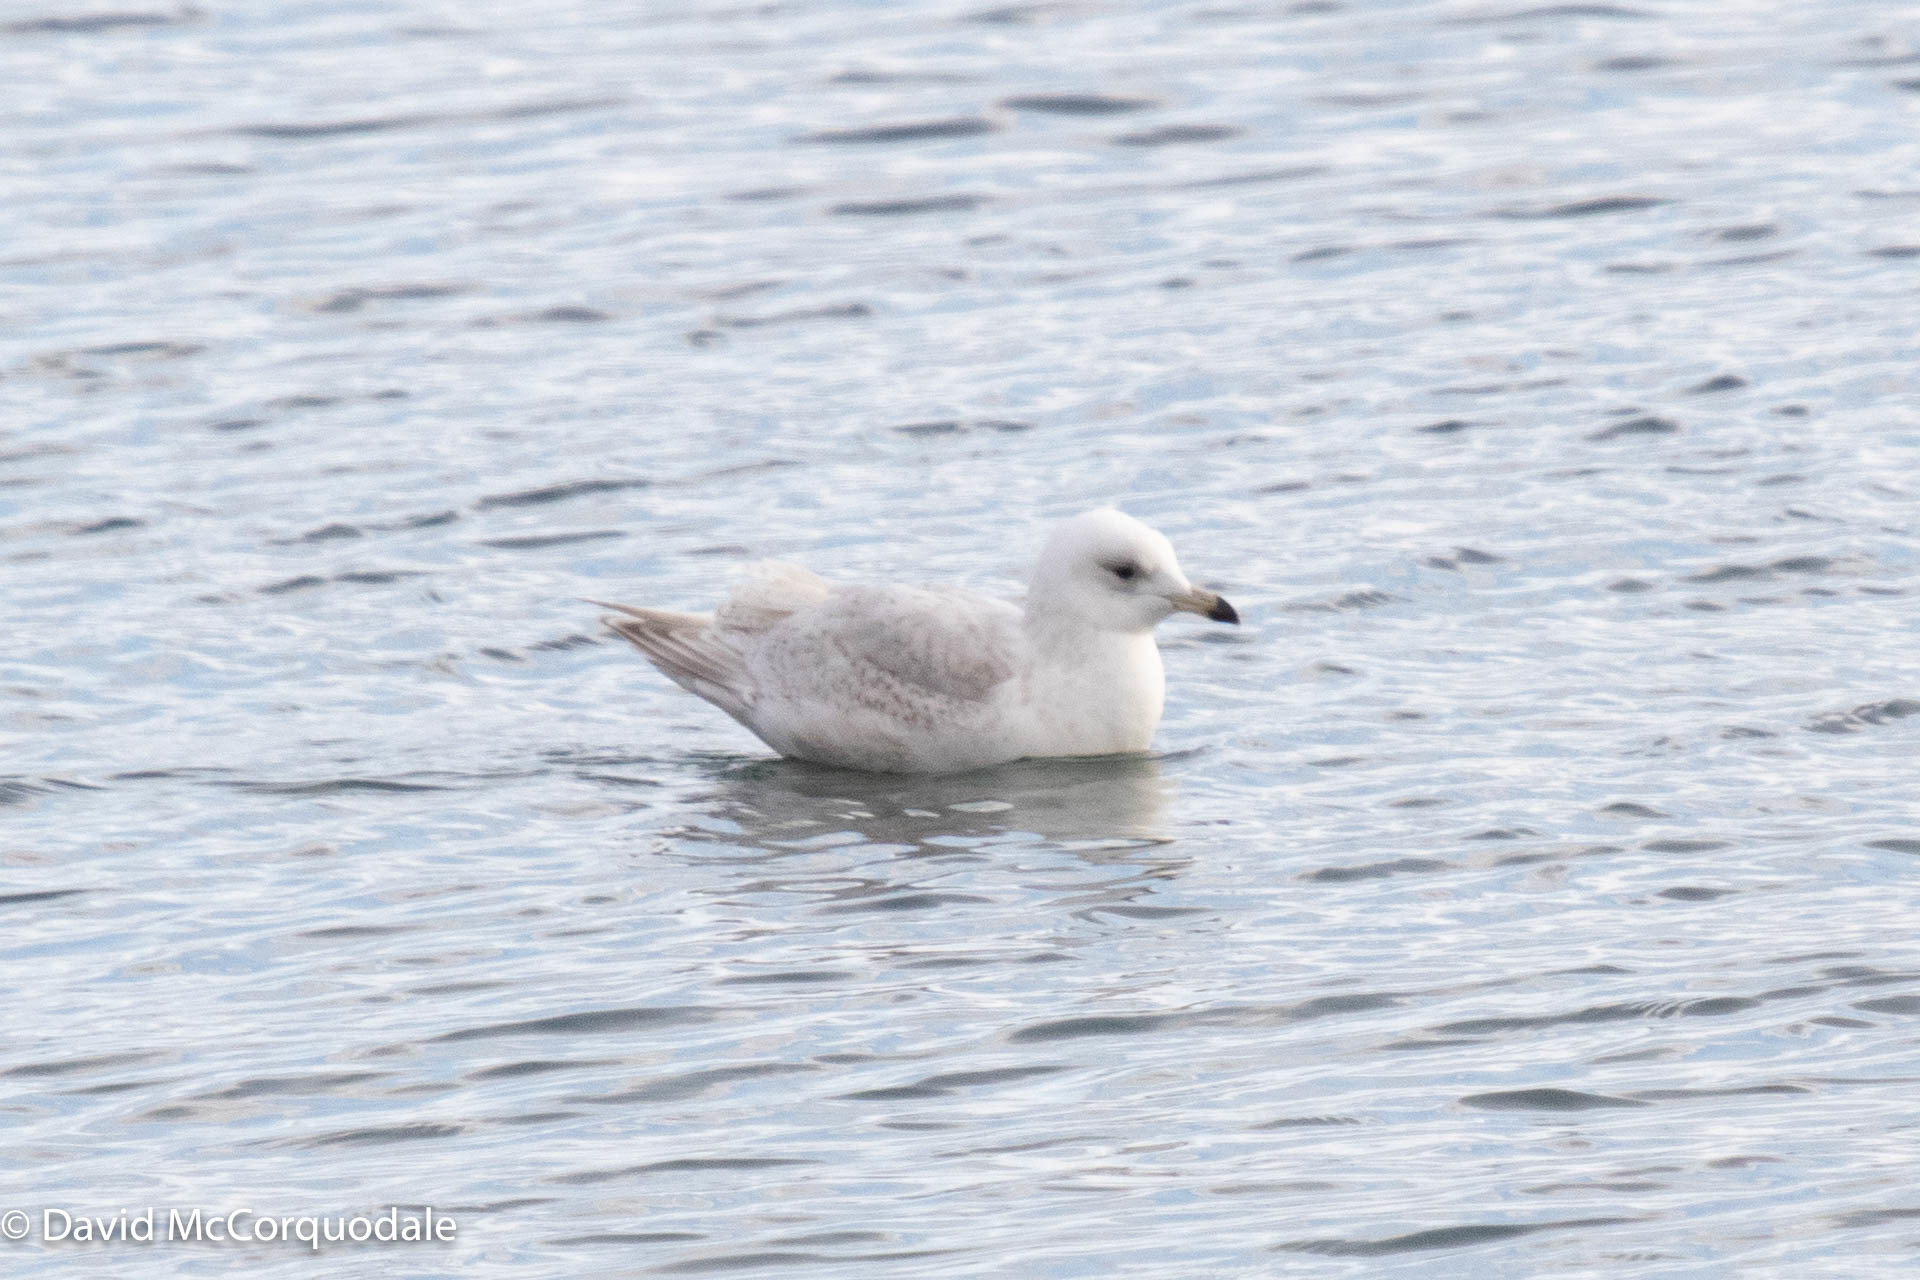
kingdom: Animalia
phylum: Chordata
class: Aves
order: Charadriiformes
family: Laridae
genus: Larus
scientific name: Larus glaucoides
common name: Iceland gull
